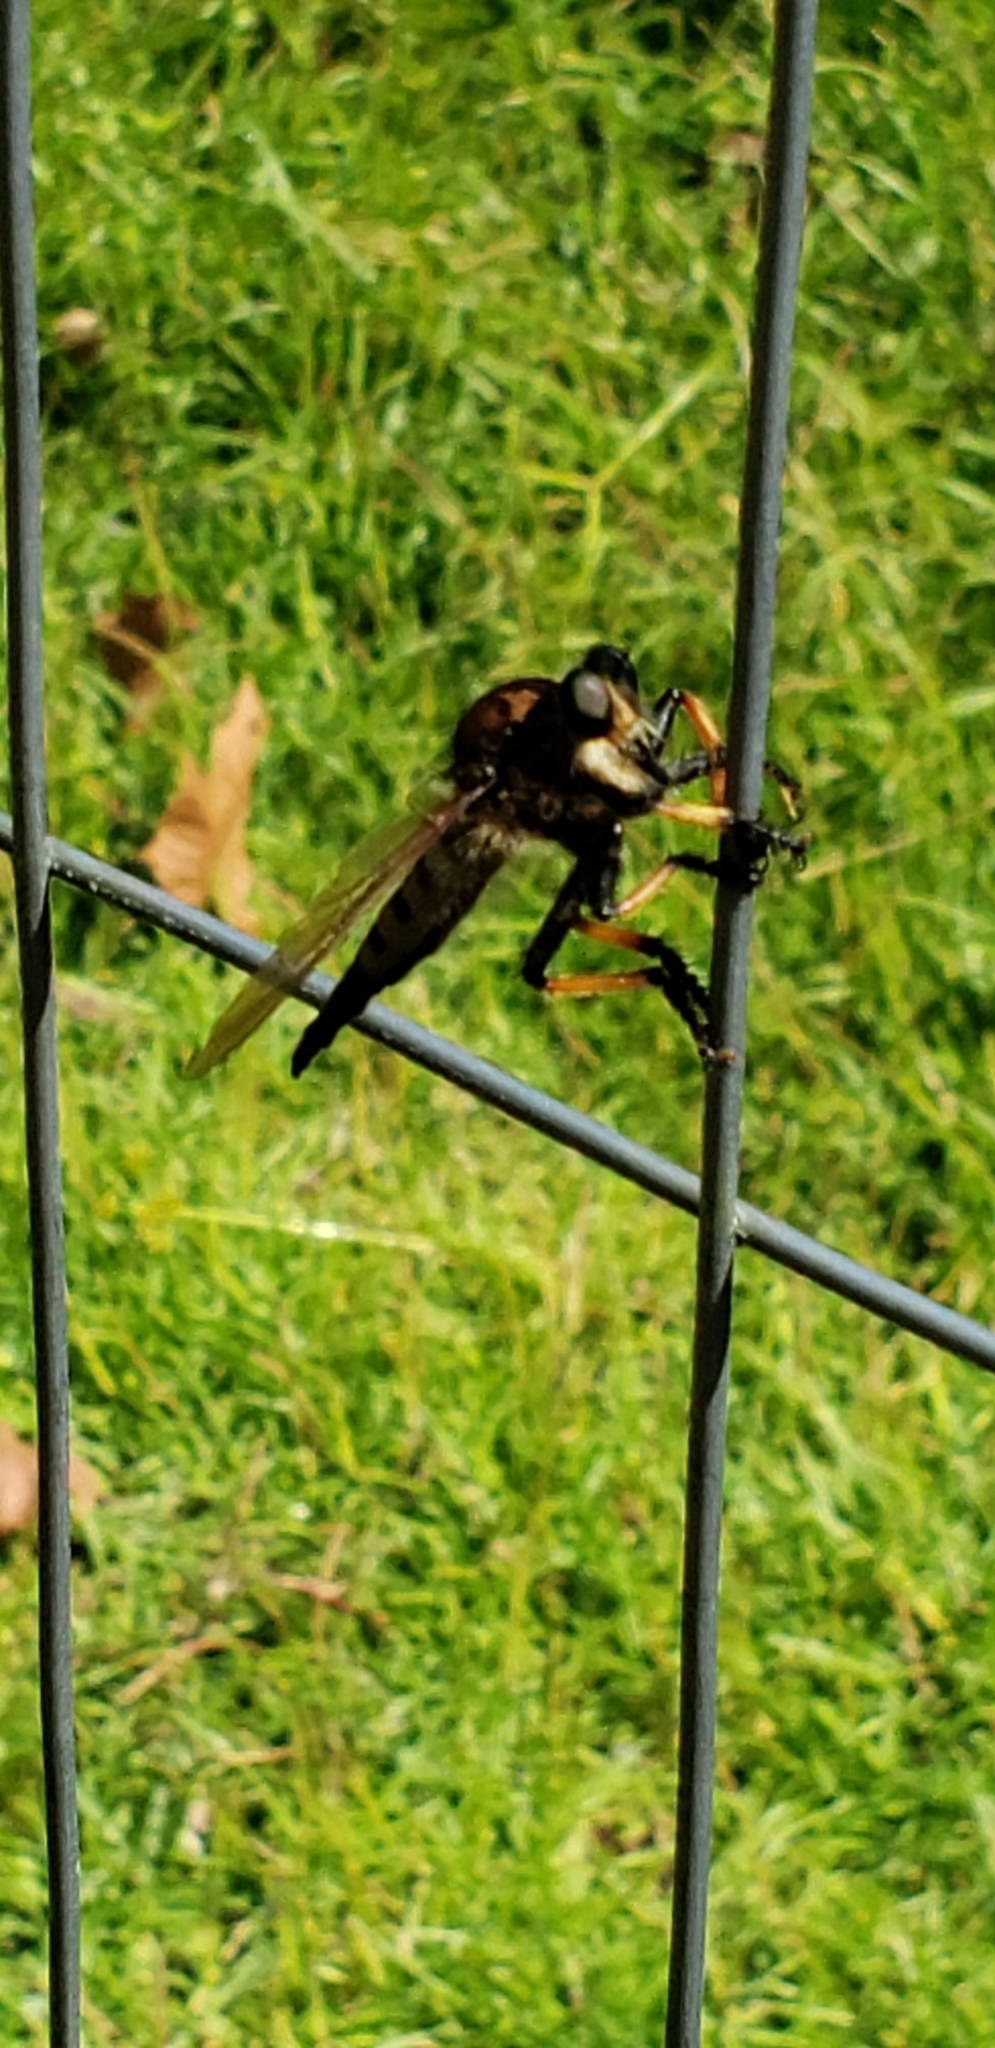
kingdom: Animalia
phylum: Arthropoda
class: Insecta
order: Diptera
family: Asilidae
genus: Promachus
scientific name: Promachus rufipes
